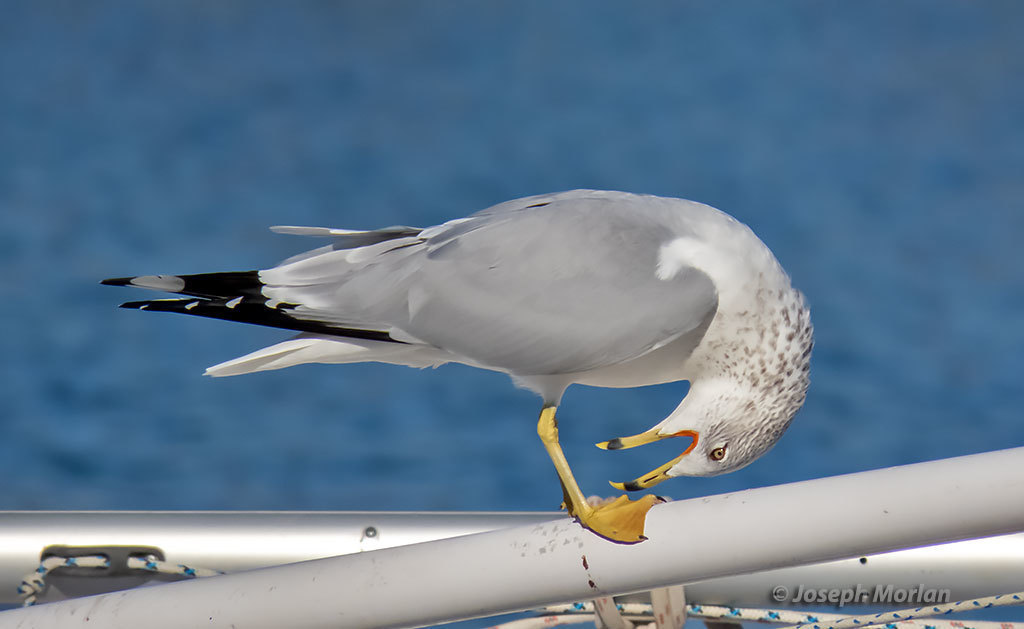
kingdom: Animalia
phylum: Chordata
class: Aves
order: Charadriiformes
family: Laridae
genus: Larus
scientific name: Larus delawarensis
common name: Ring-billed gull
